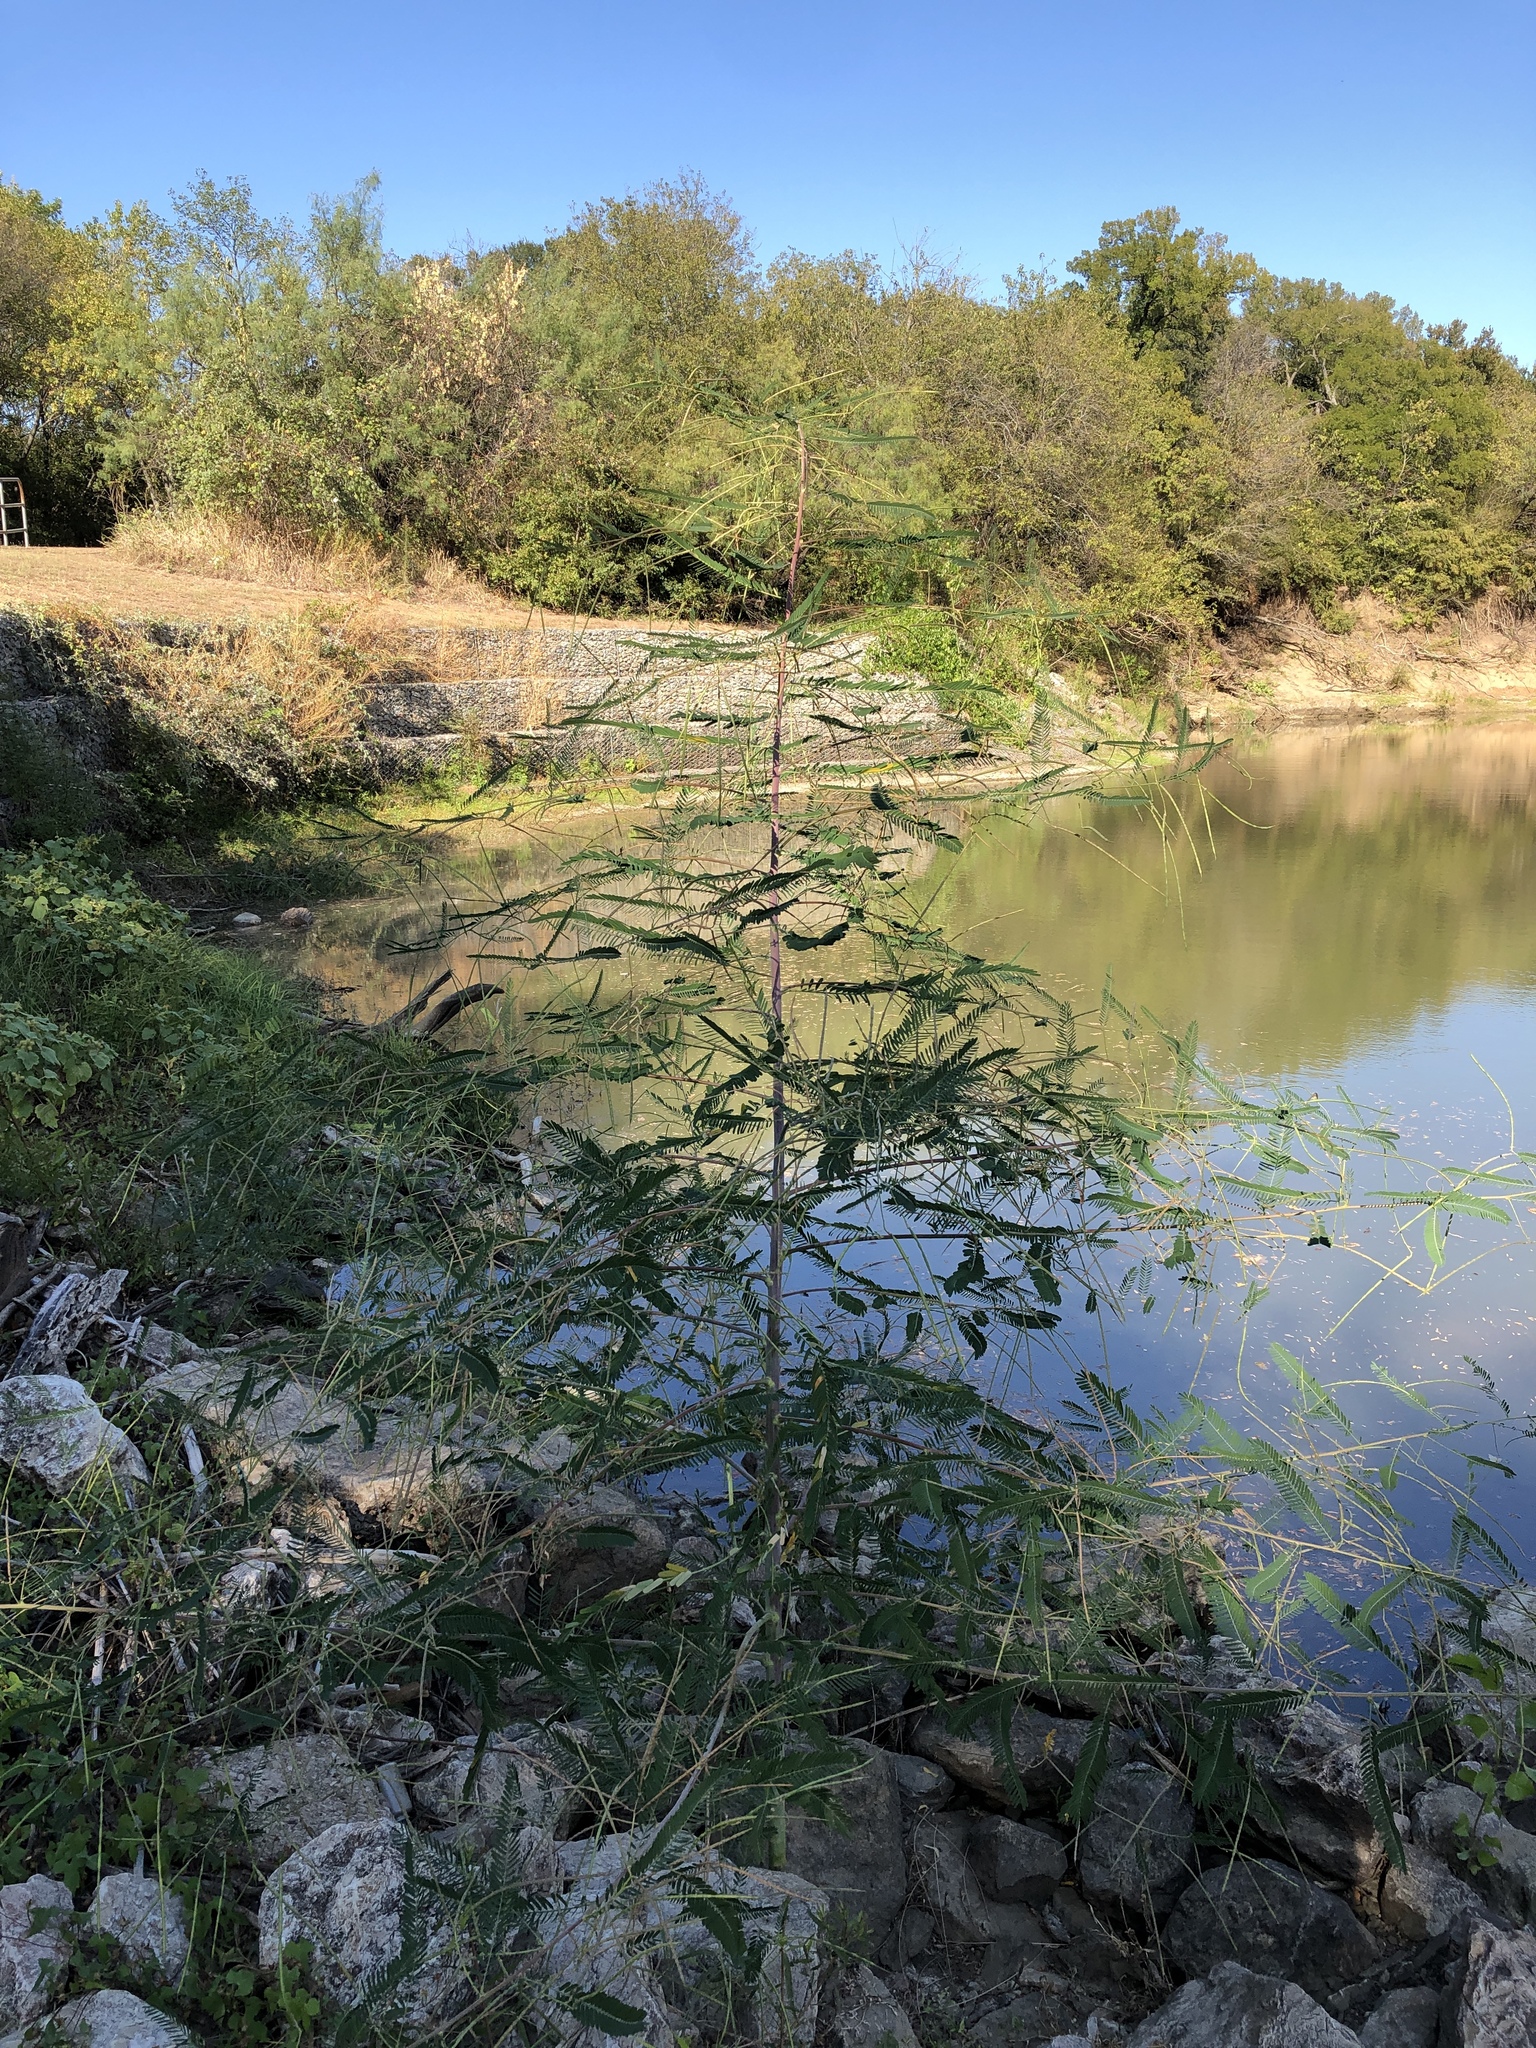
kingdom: Plantae
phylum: Tracheophyta
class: Magnoliopsida
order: Fabales
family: Fabaceae
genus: Sesbania
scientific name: Sesbania herbacea
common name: Bigpod sesbania
